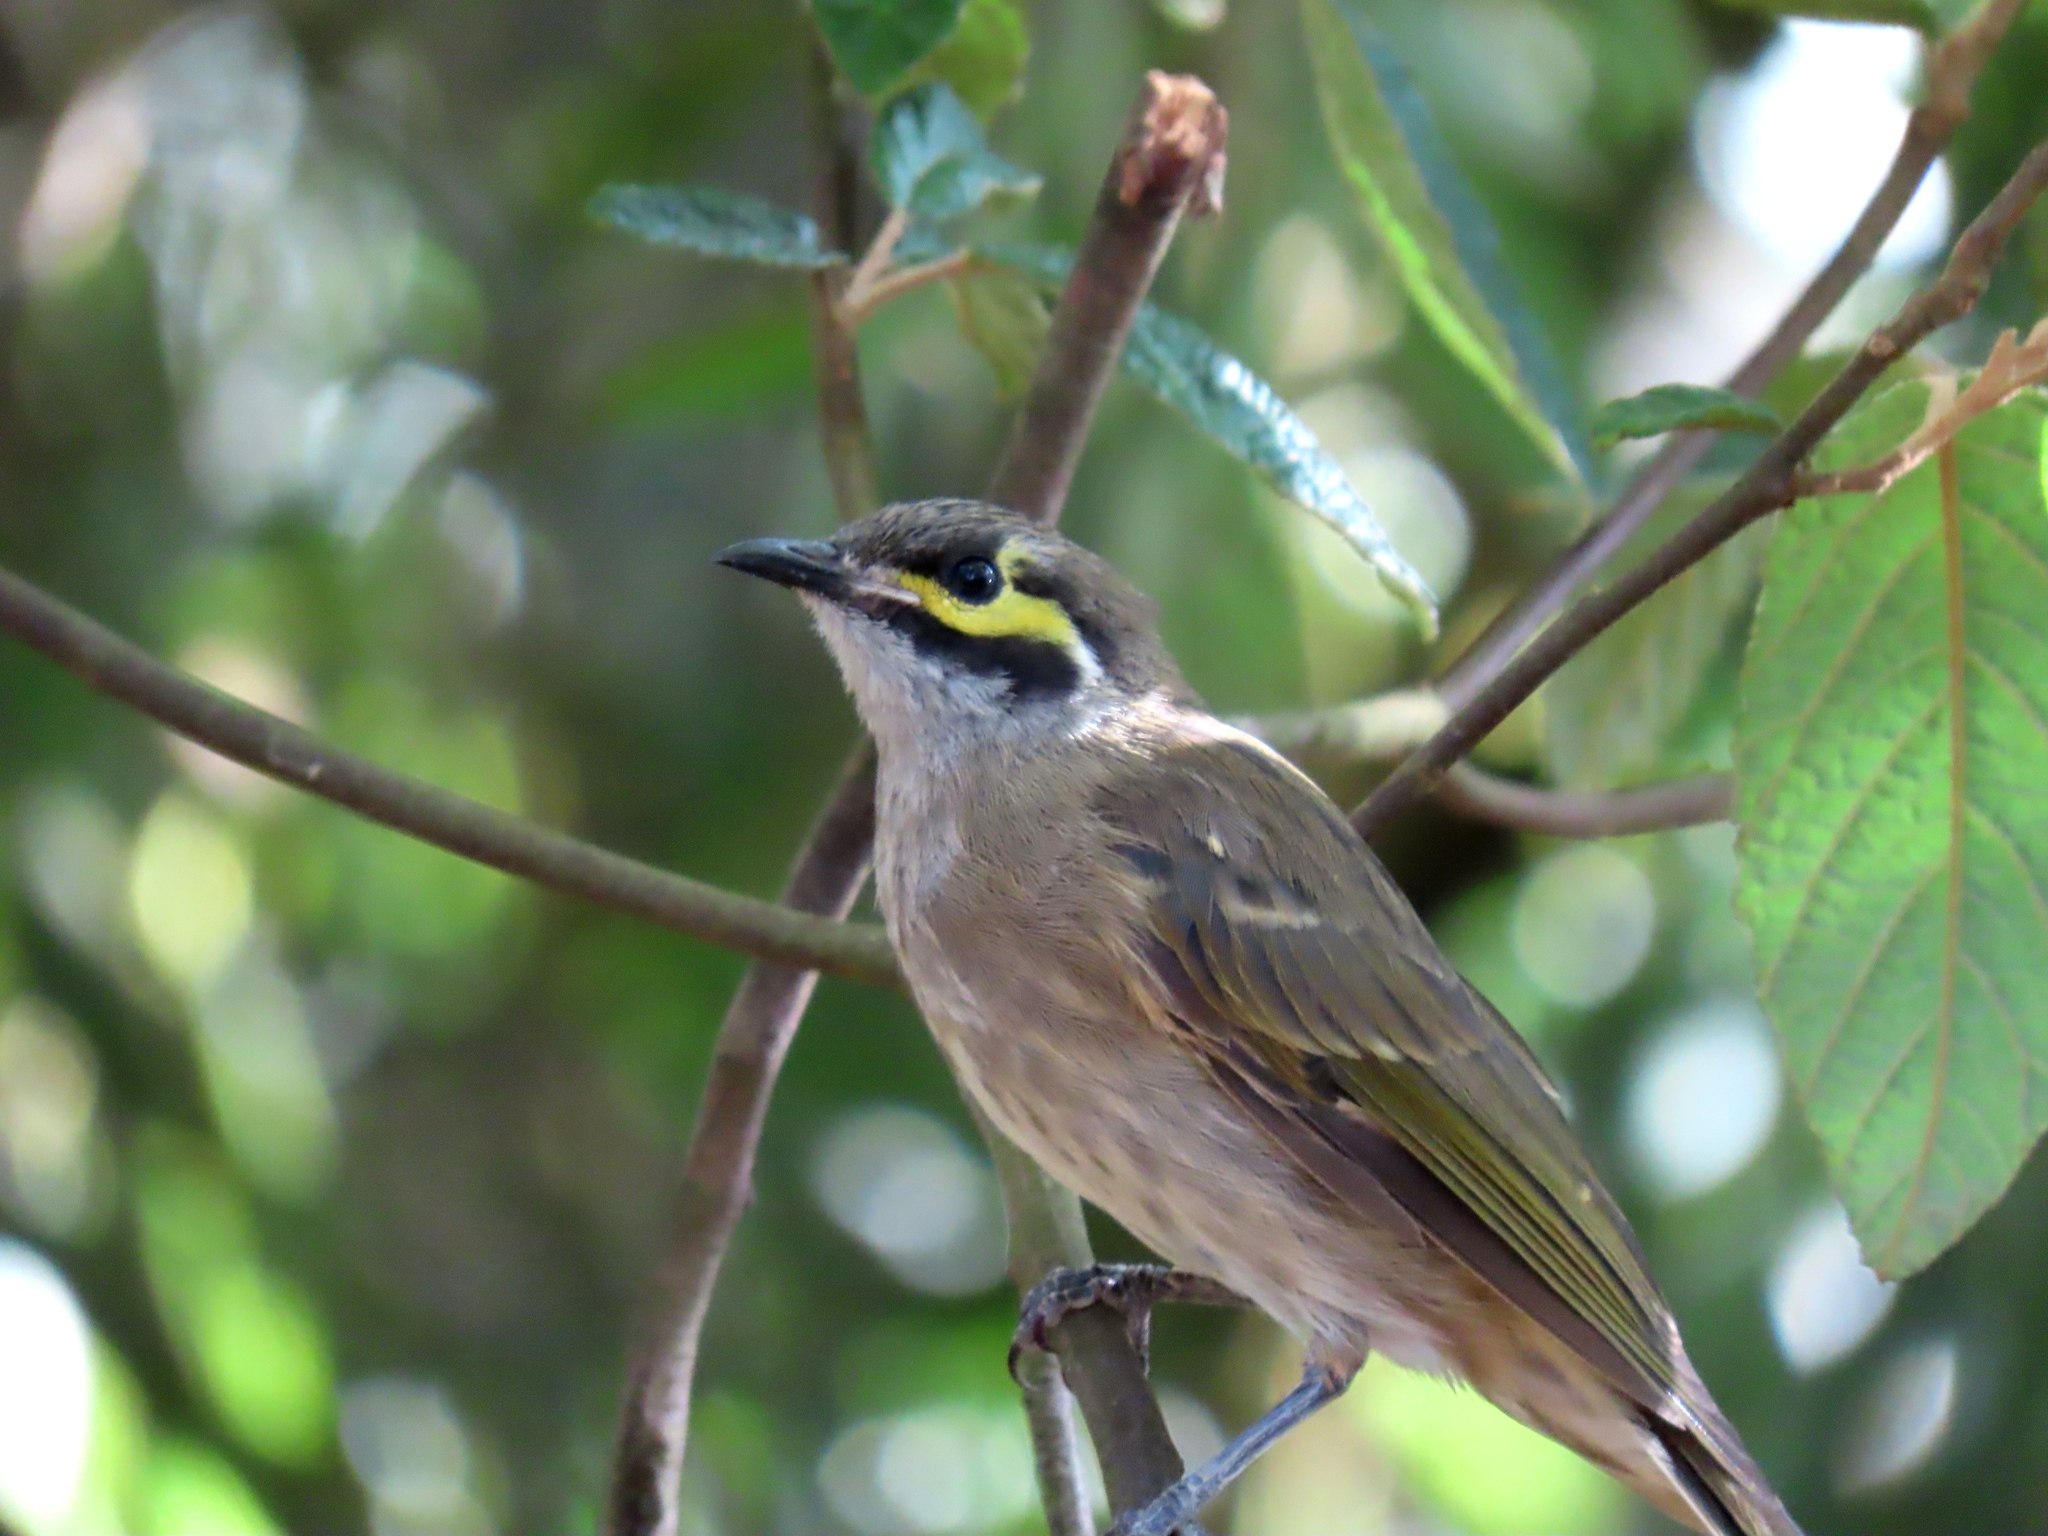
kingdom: Animalia
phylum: Chordata
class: Aves
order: Passeriformes
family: Meliphagidae
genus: Caligavis
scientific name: Caligavis chrysops
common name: Yellow-faced honeyeater
